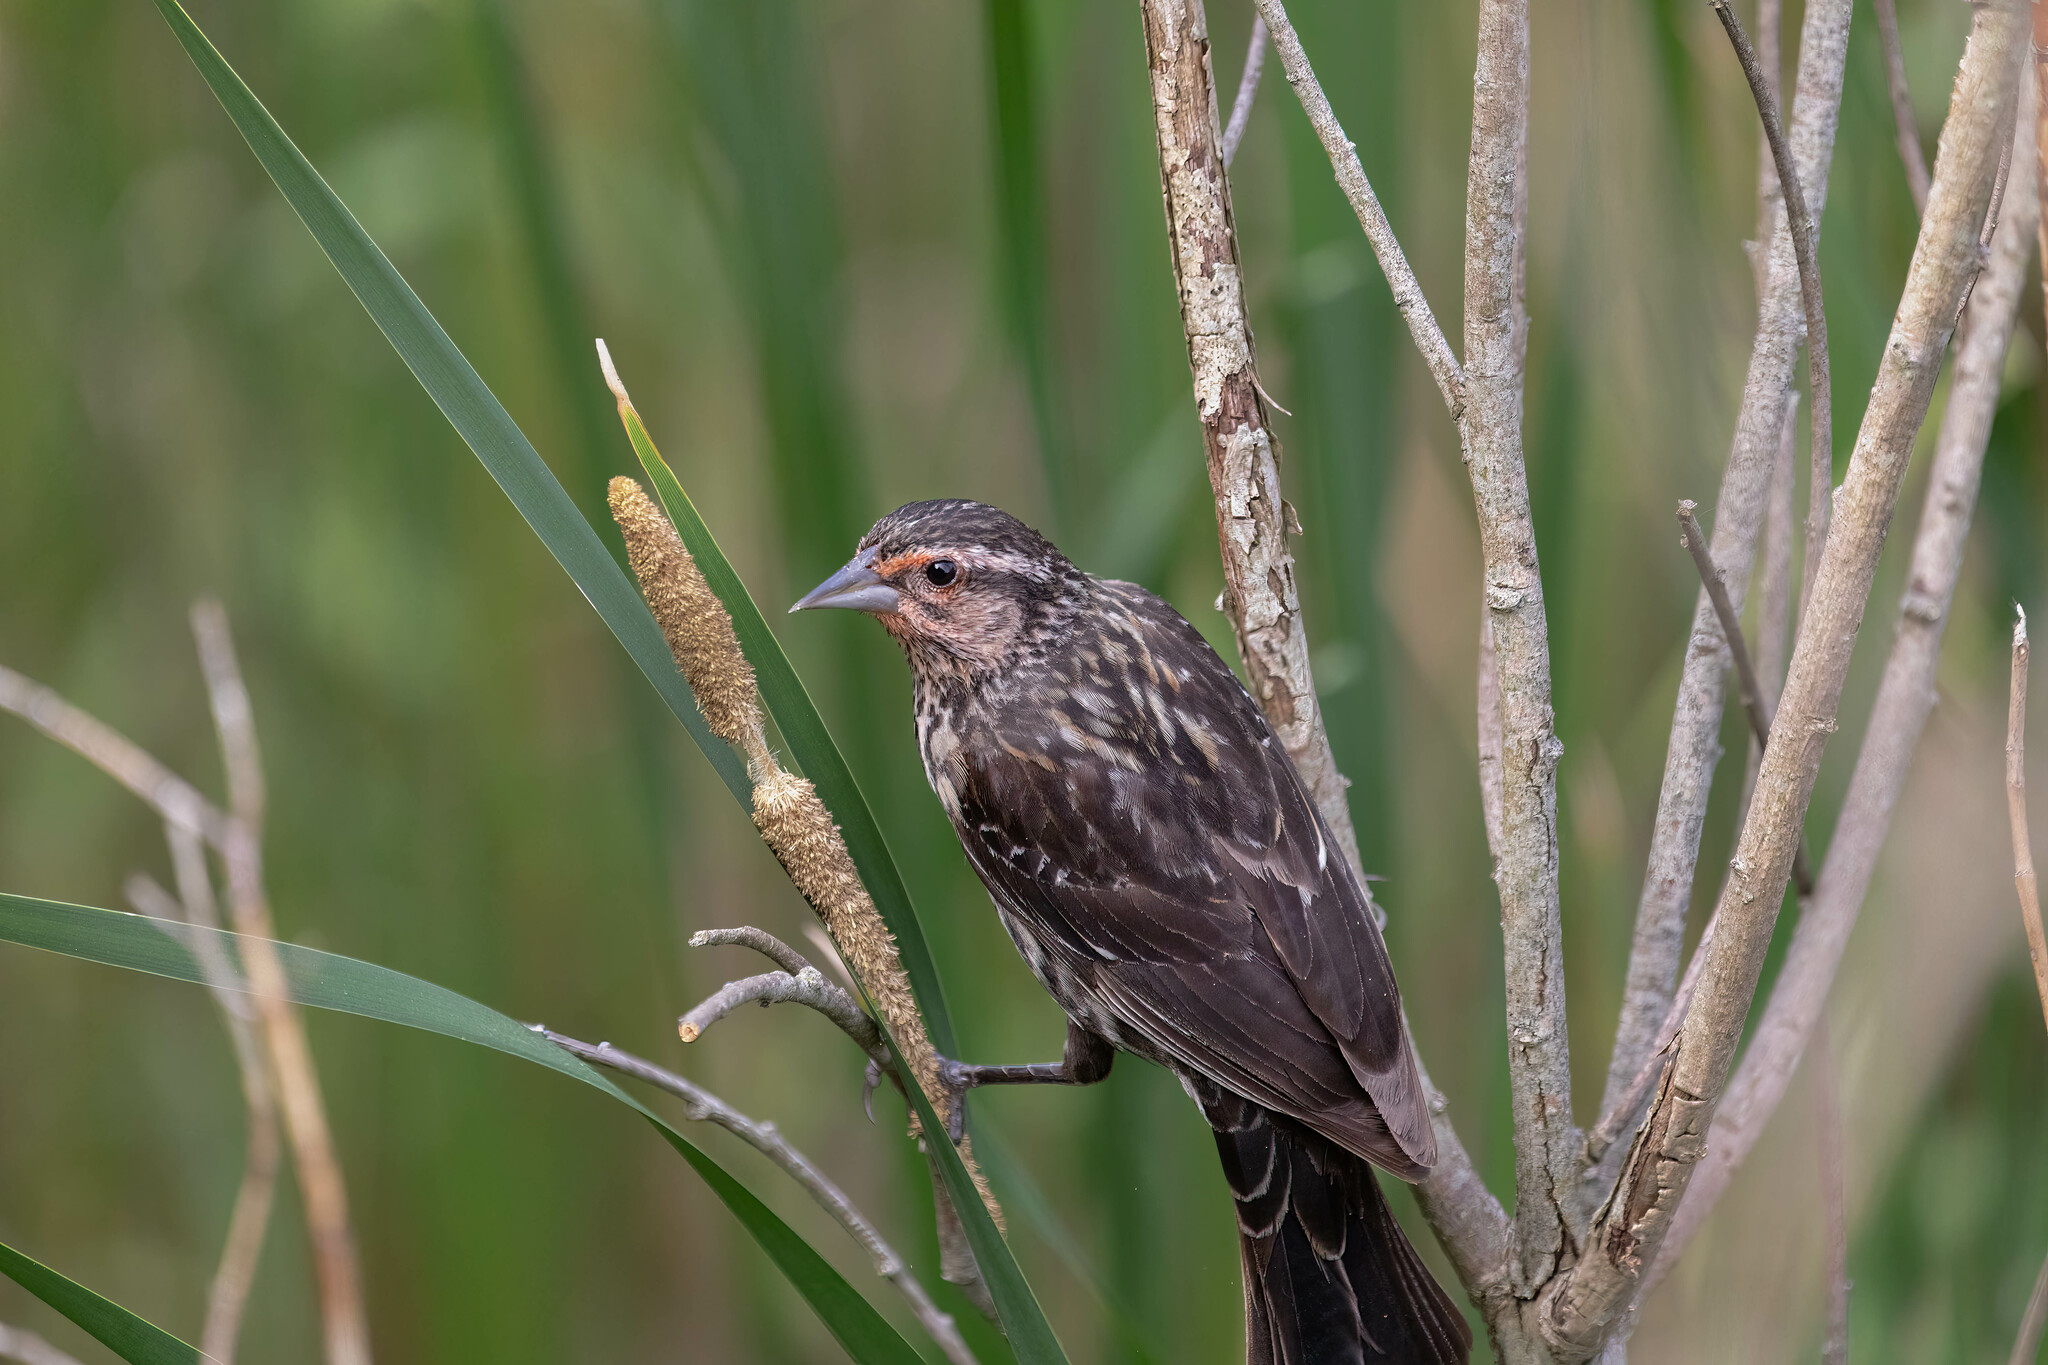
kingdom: Animalia
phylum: Chordata
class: Aves
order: Passeriformes
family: Icteridae
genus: Agelaius
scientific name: Agelaius phoeniceus
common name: Red-winged blackbird
